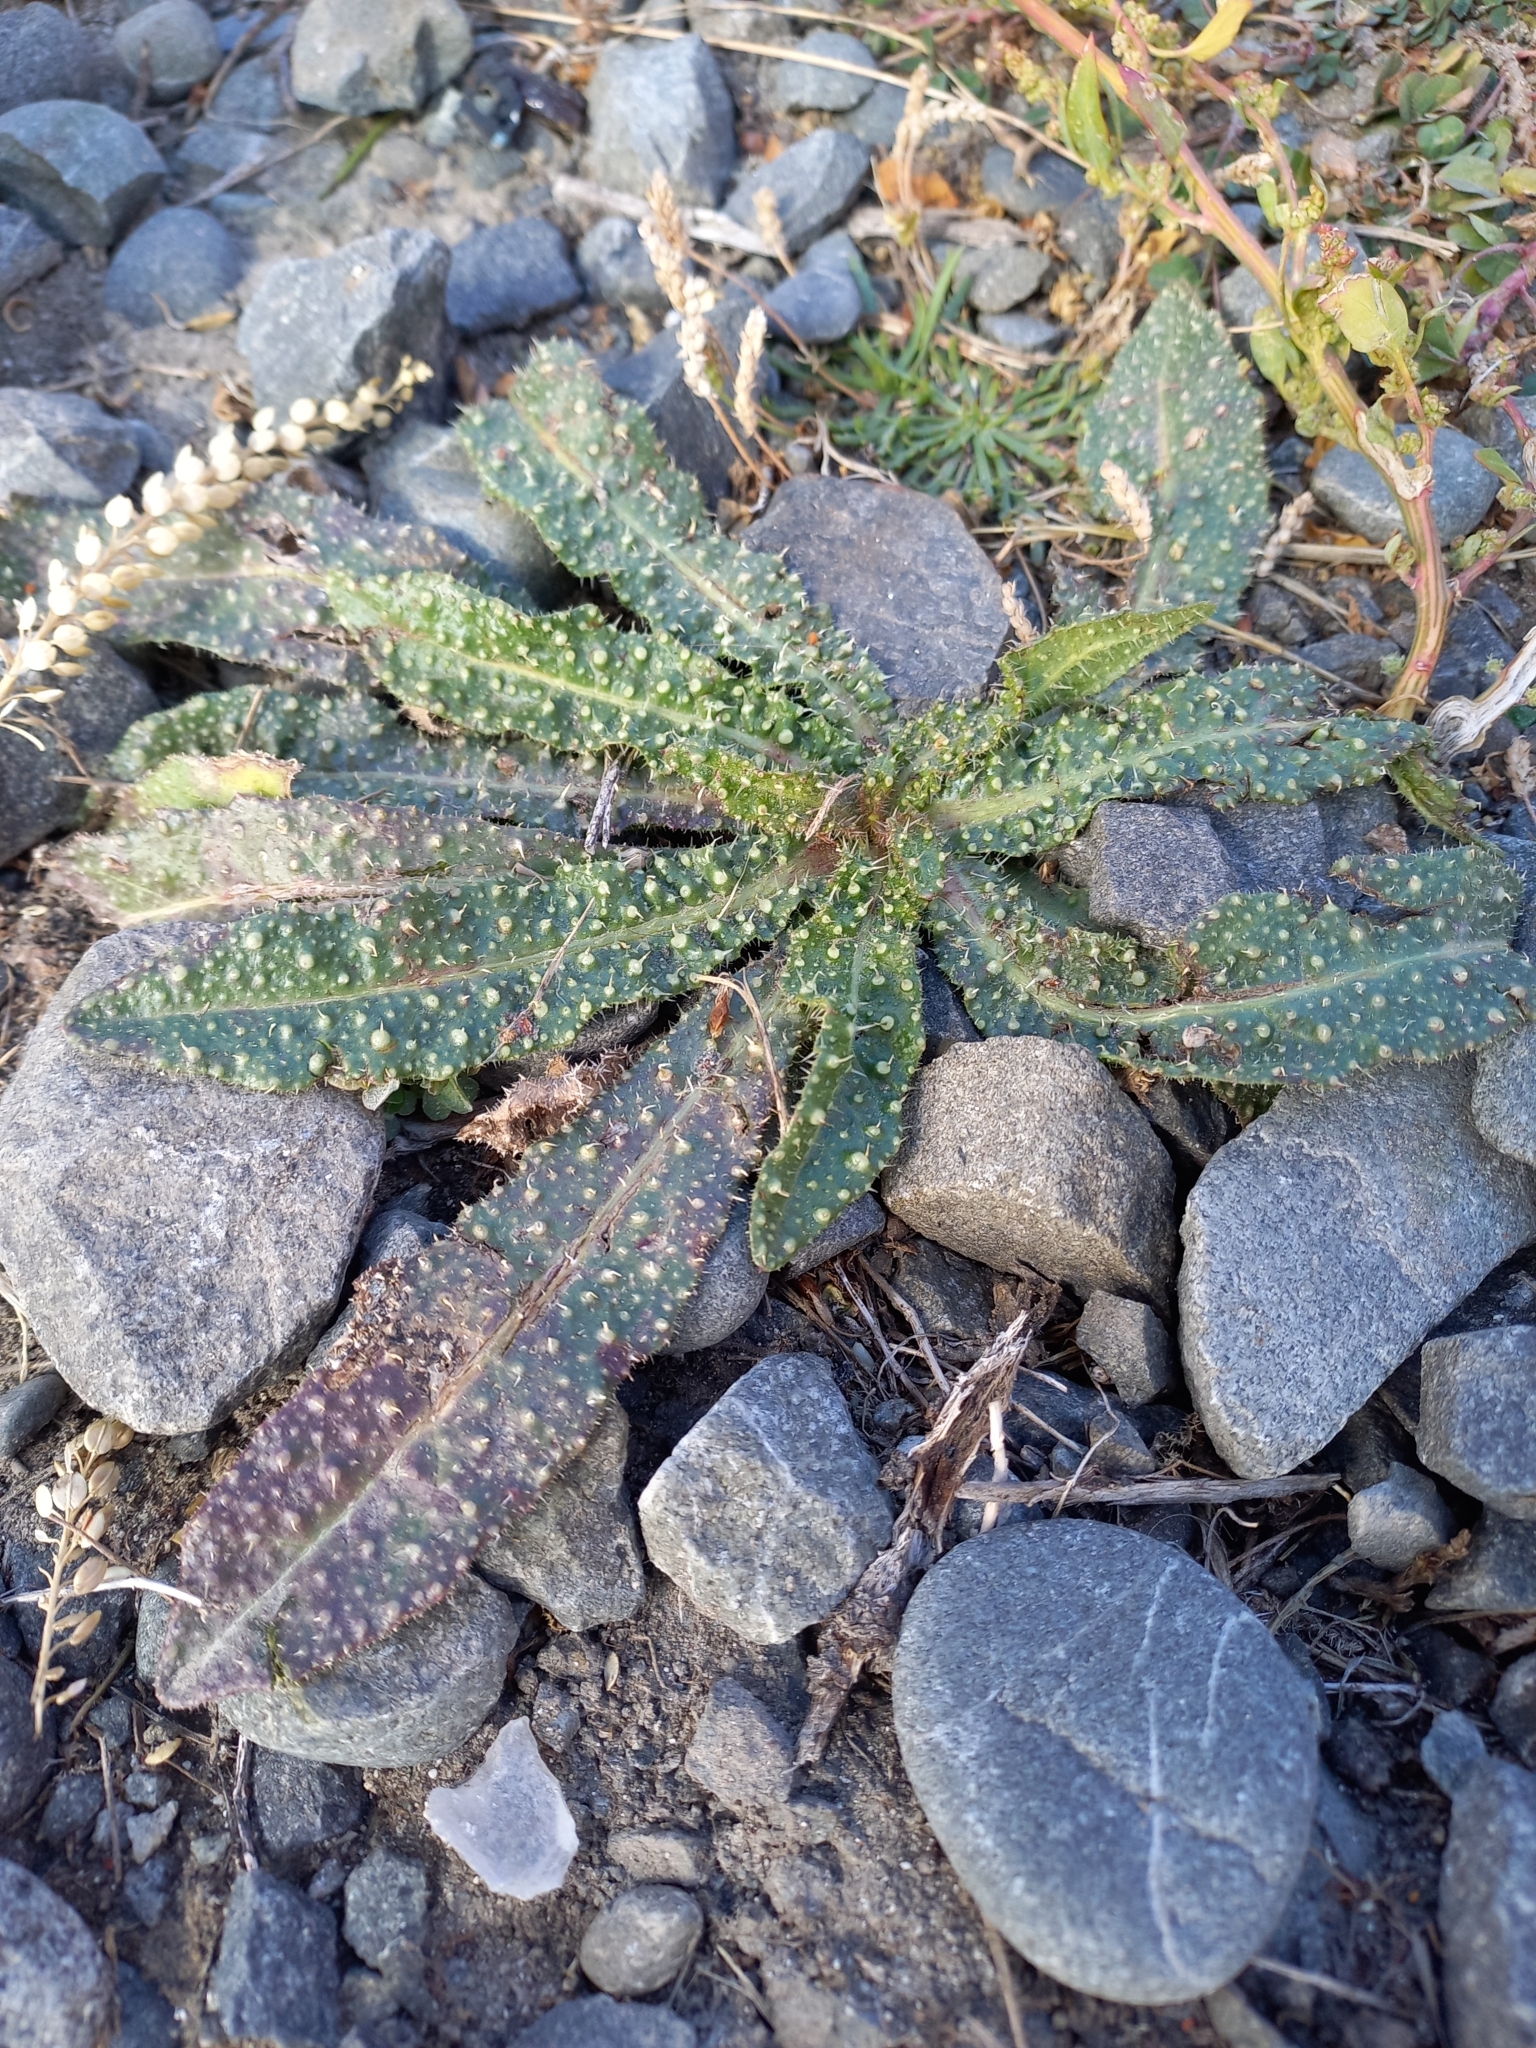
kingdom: Plantae
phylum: Tracheophyta
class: Magnoliopsida
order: Asterales
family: Asteraceae
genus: Helminthotheca
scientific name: Helminthotheca echioides
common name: Ox-tongue
